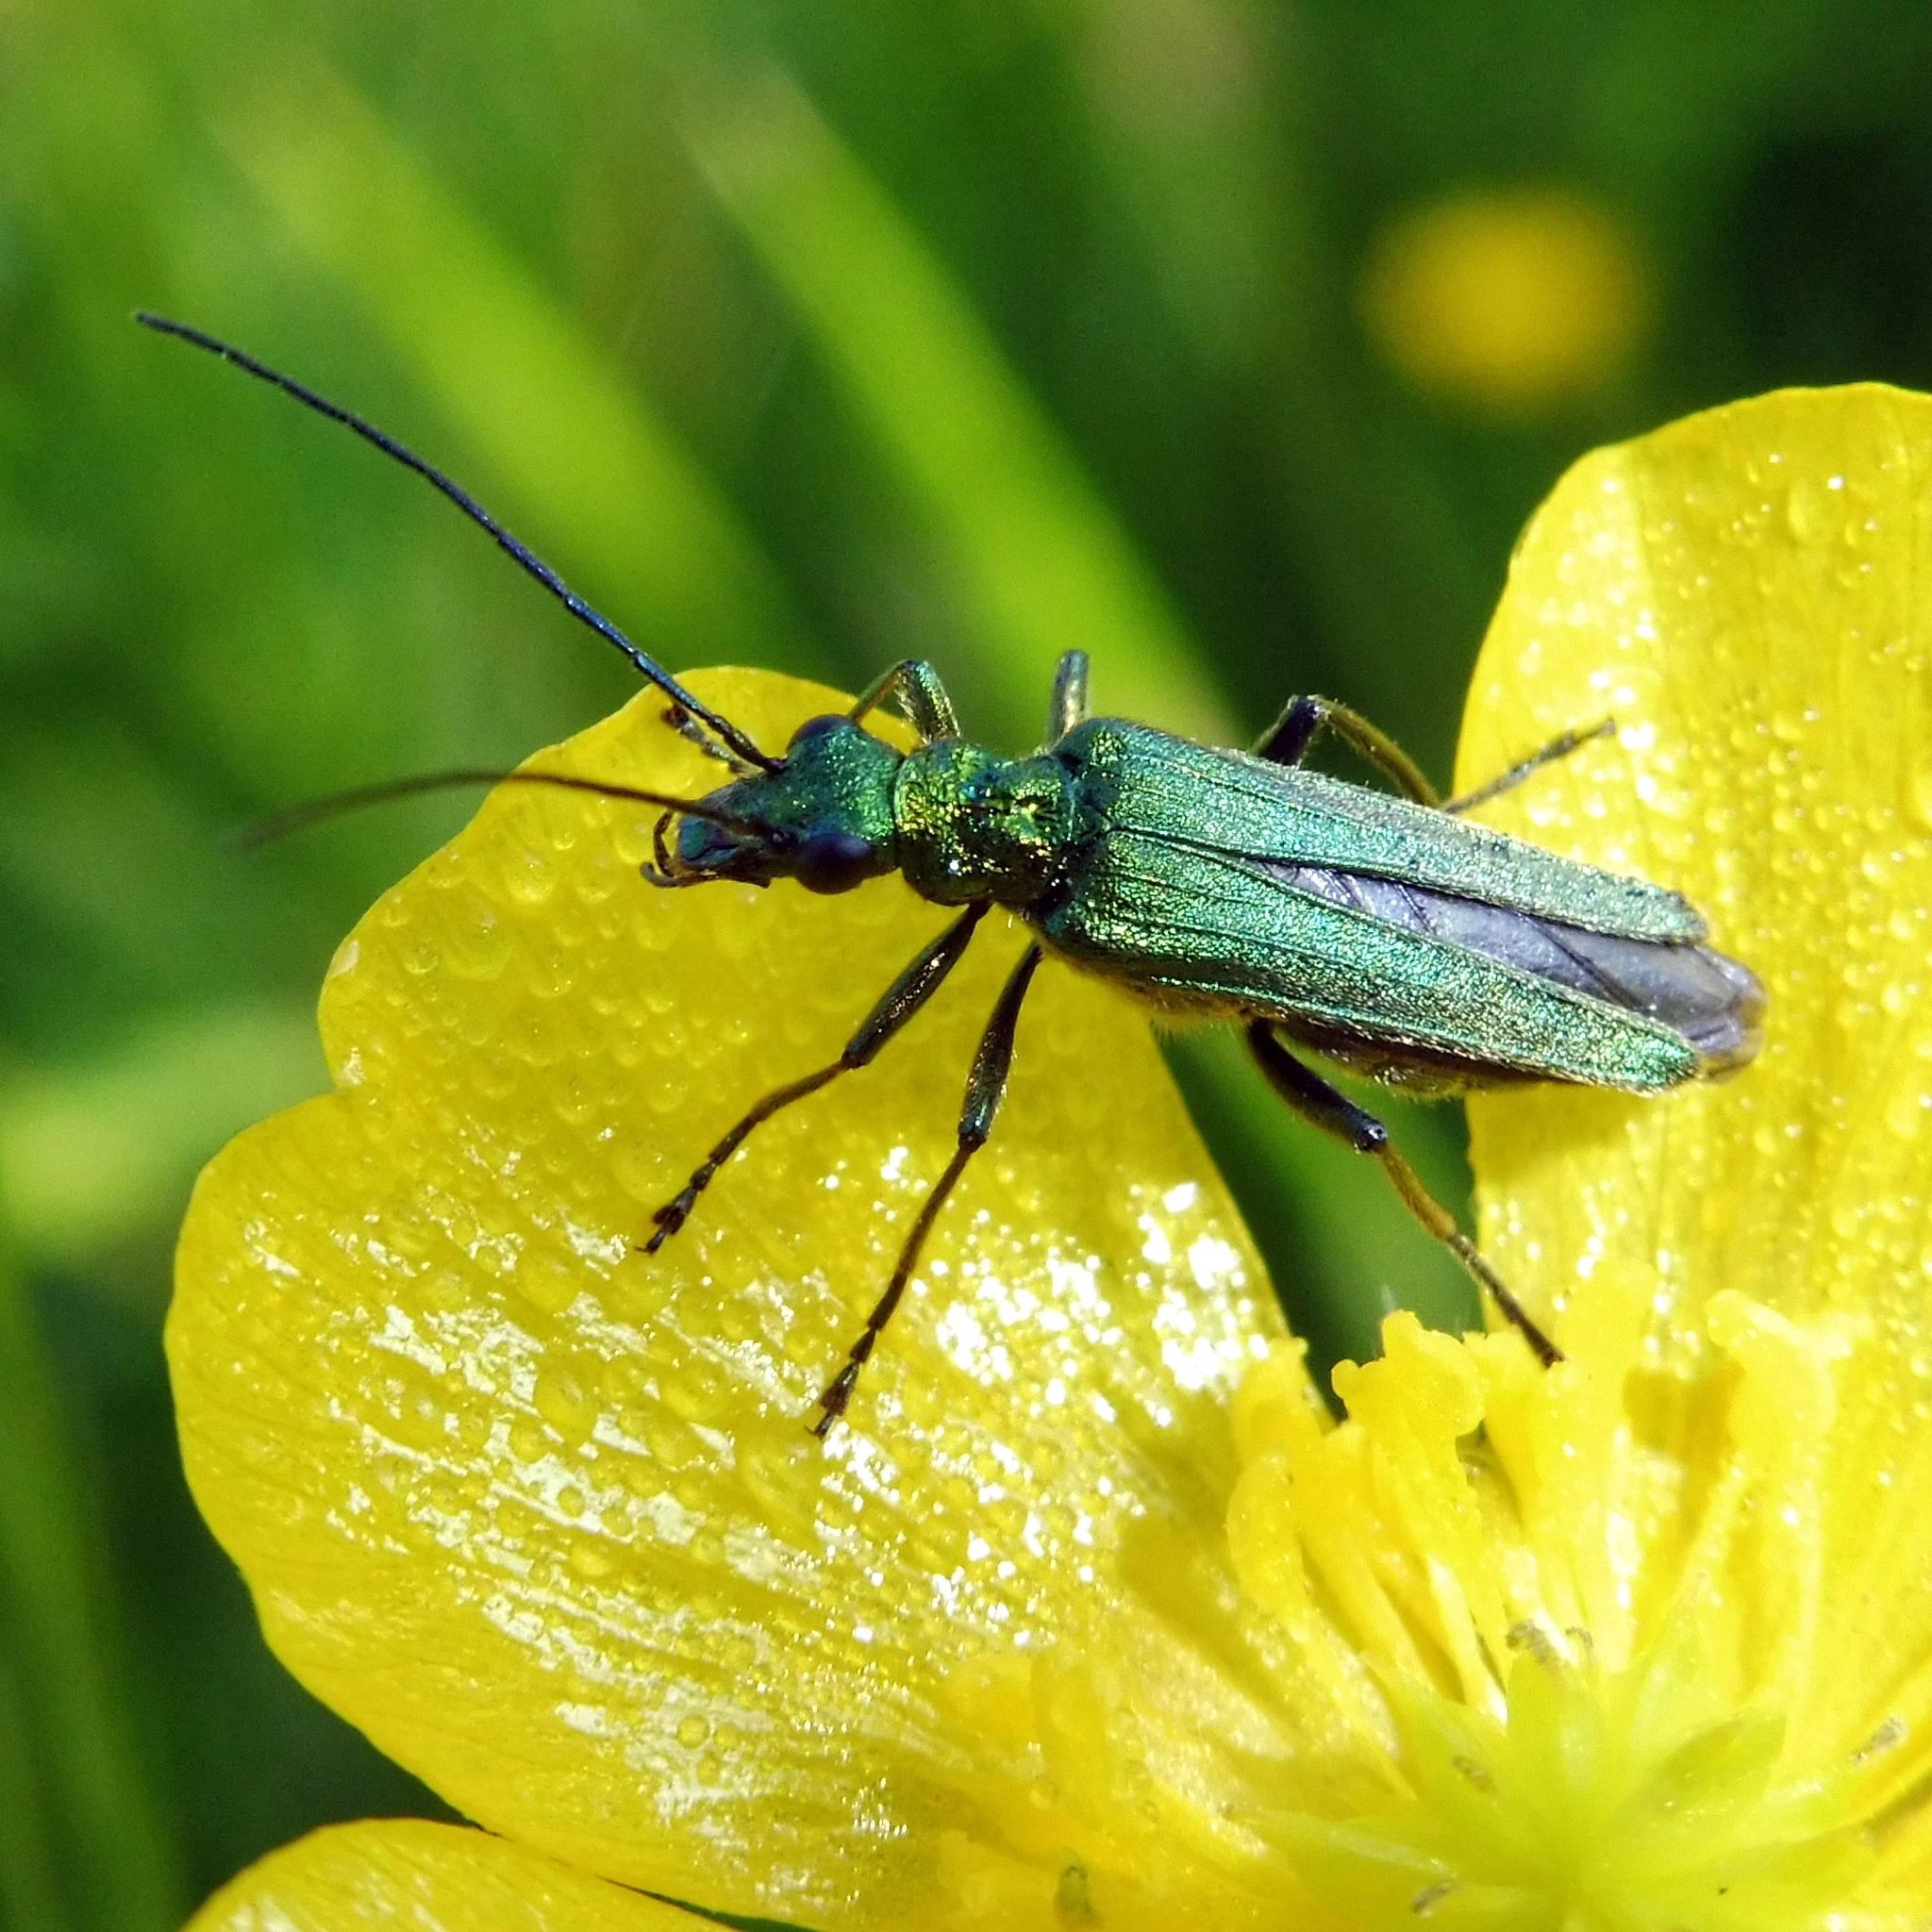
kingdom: Animalia
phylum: Arthropoda
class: Insecta
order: Coleoptera
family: Oedemeridae
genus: Oedemera
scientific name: Oedemera nobilis
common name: Swollen-thighed beetle
